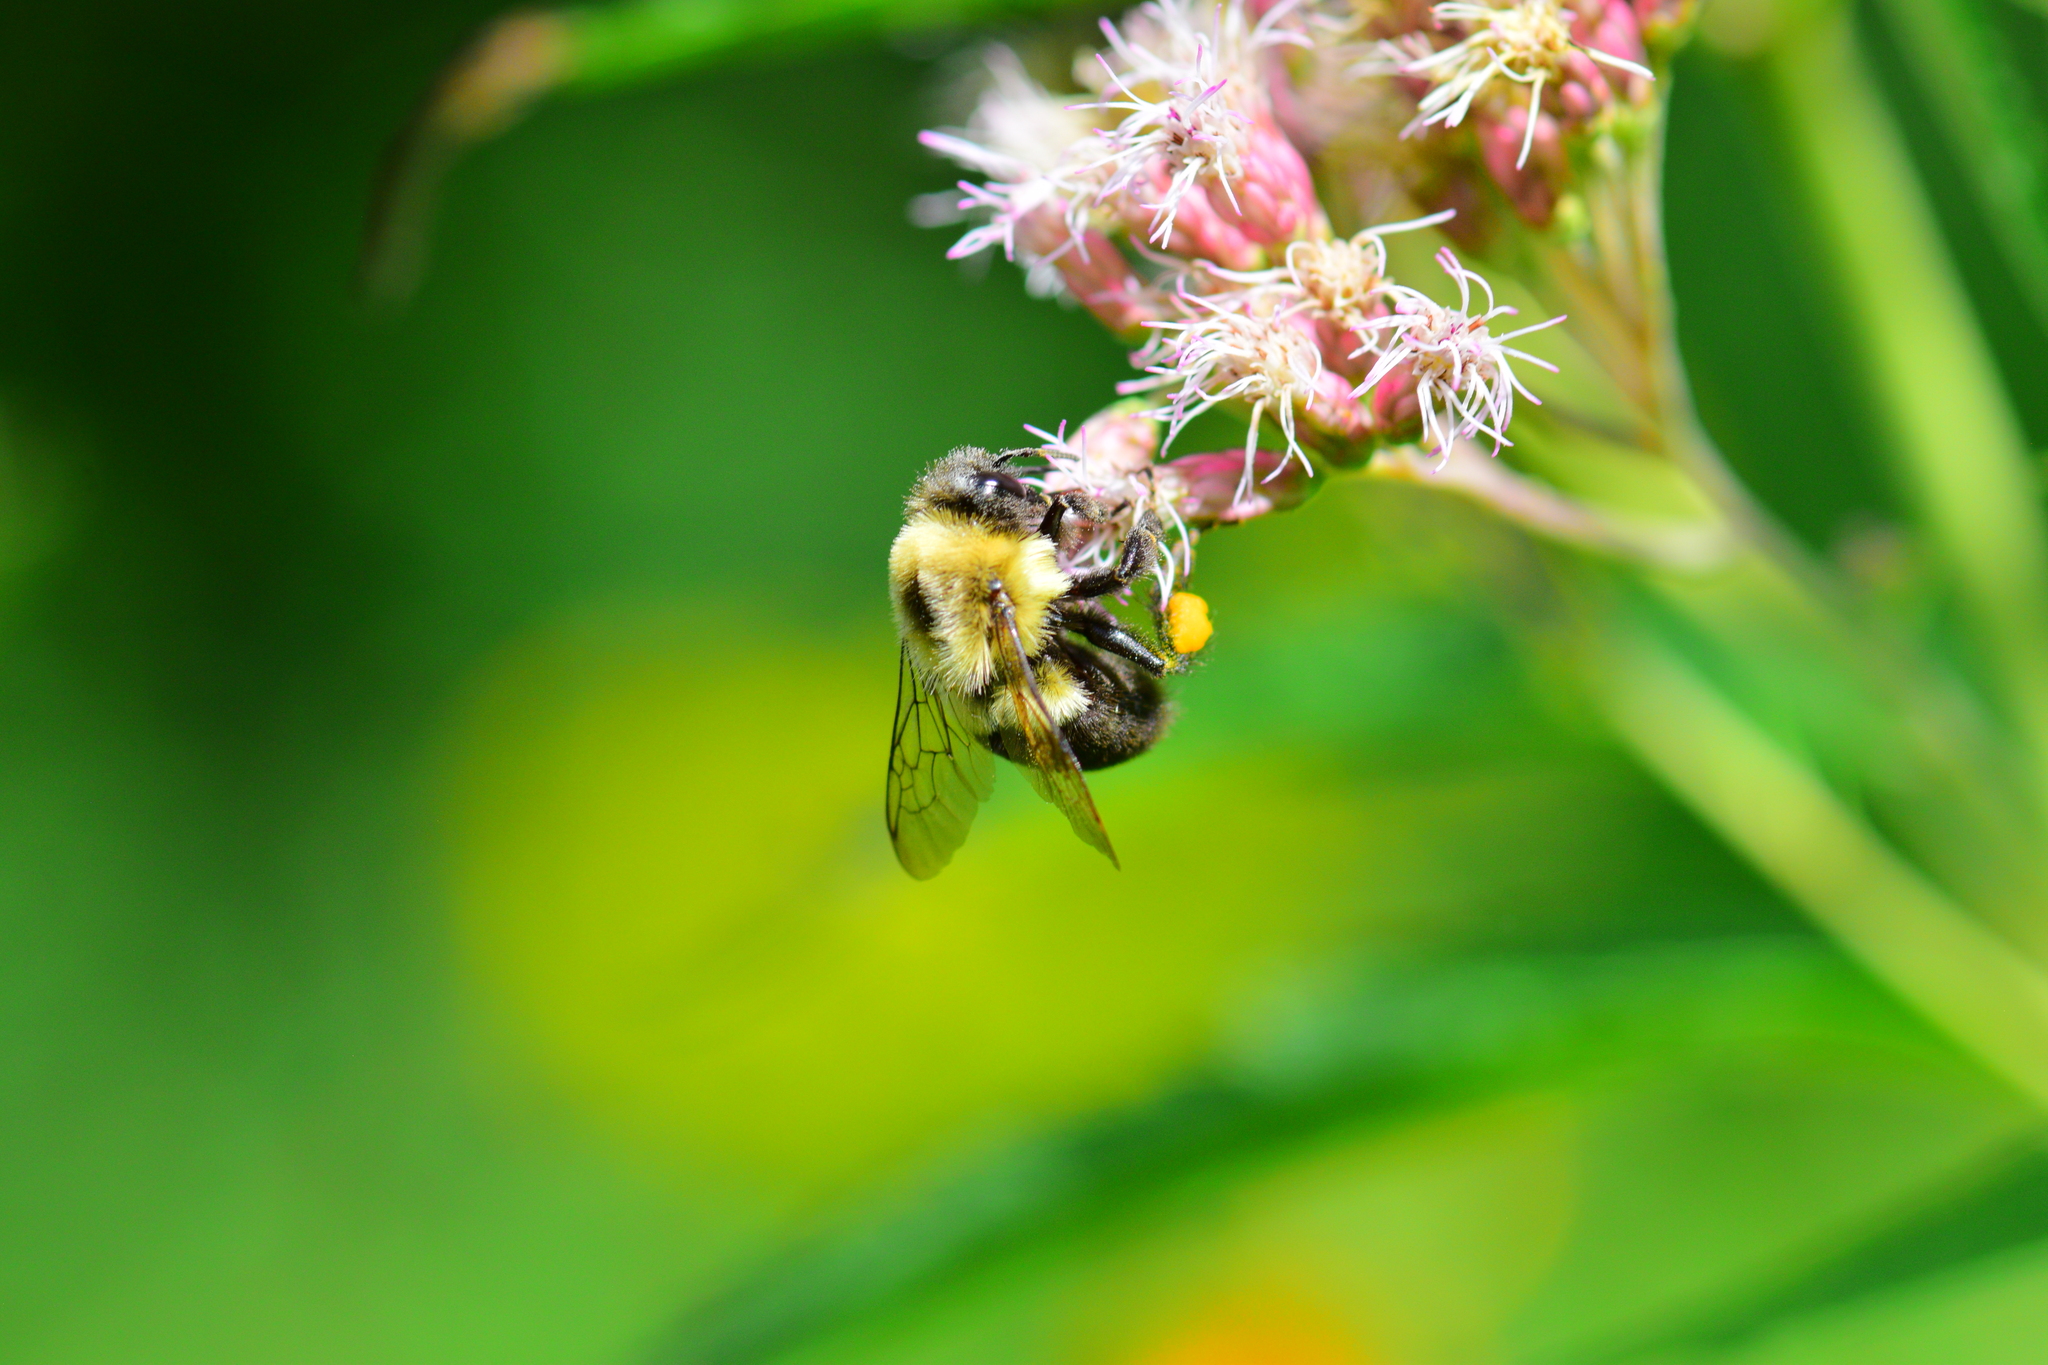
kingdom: Animalia
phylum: Arthropoda
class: Insecta
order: Hymenoptera
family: Apidae
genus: Bombus
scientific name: Bombus impatiens
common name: Common eastern bumble bee
